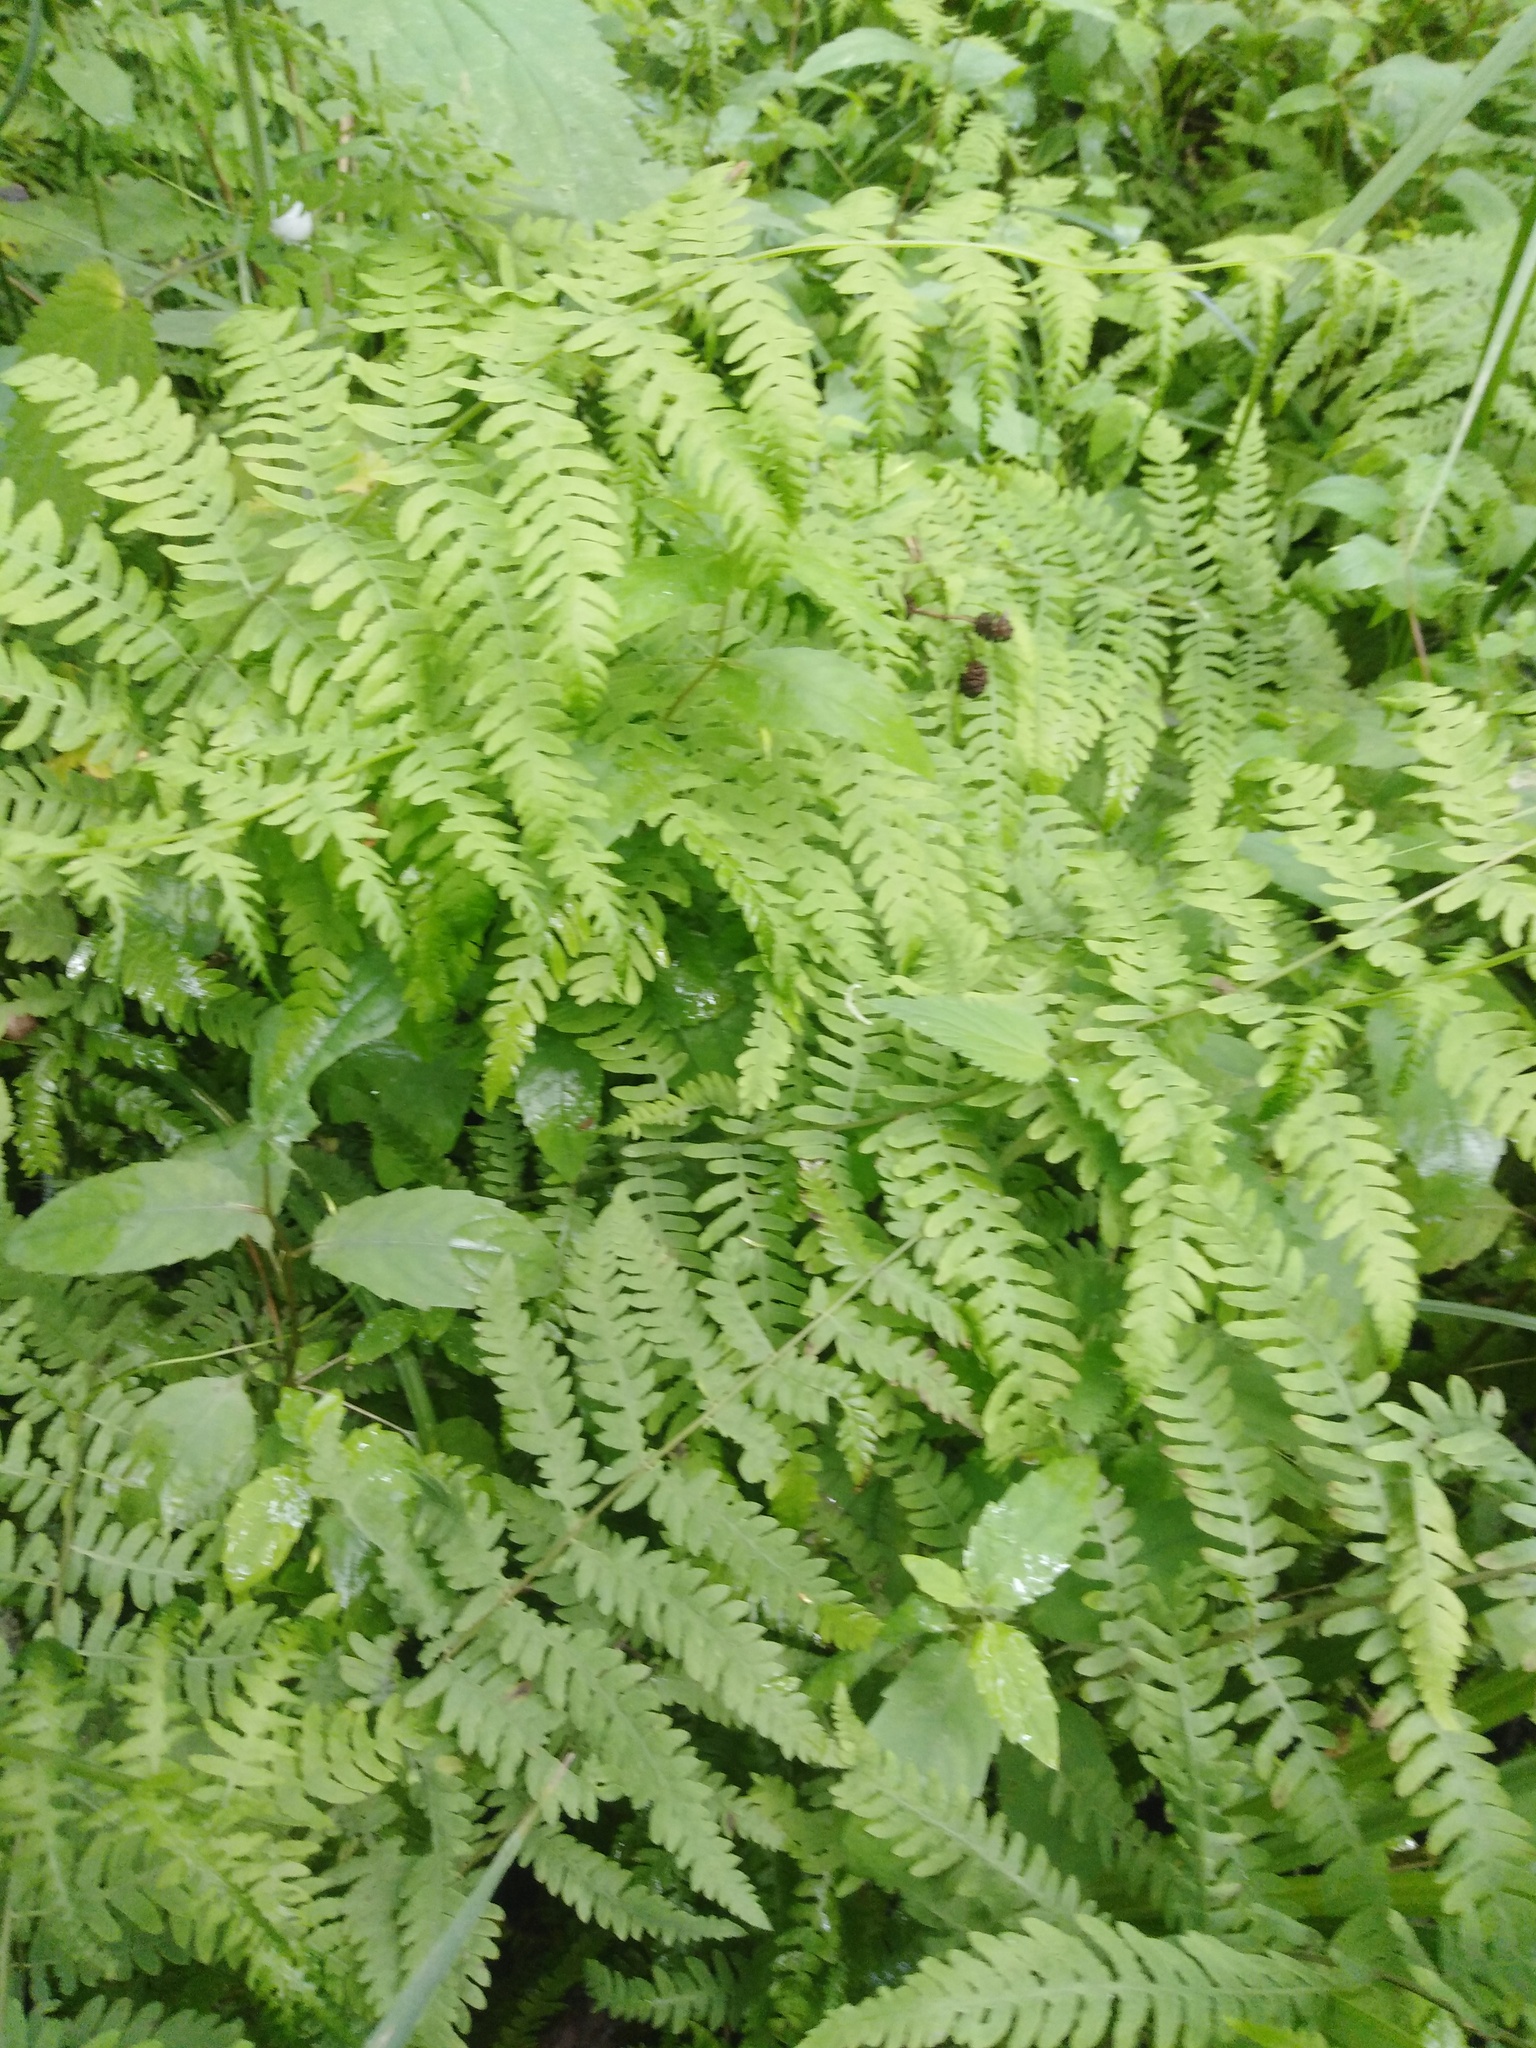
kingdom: Plantae
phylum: Tracheophyta
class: Polypodiopsida
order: Polypodiales
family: Thelypteridaceae
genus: Thelypteris
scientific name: Thelypteris palustris
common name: Marsh fern
